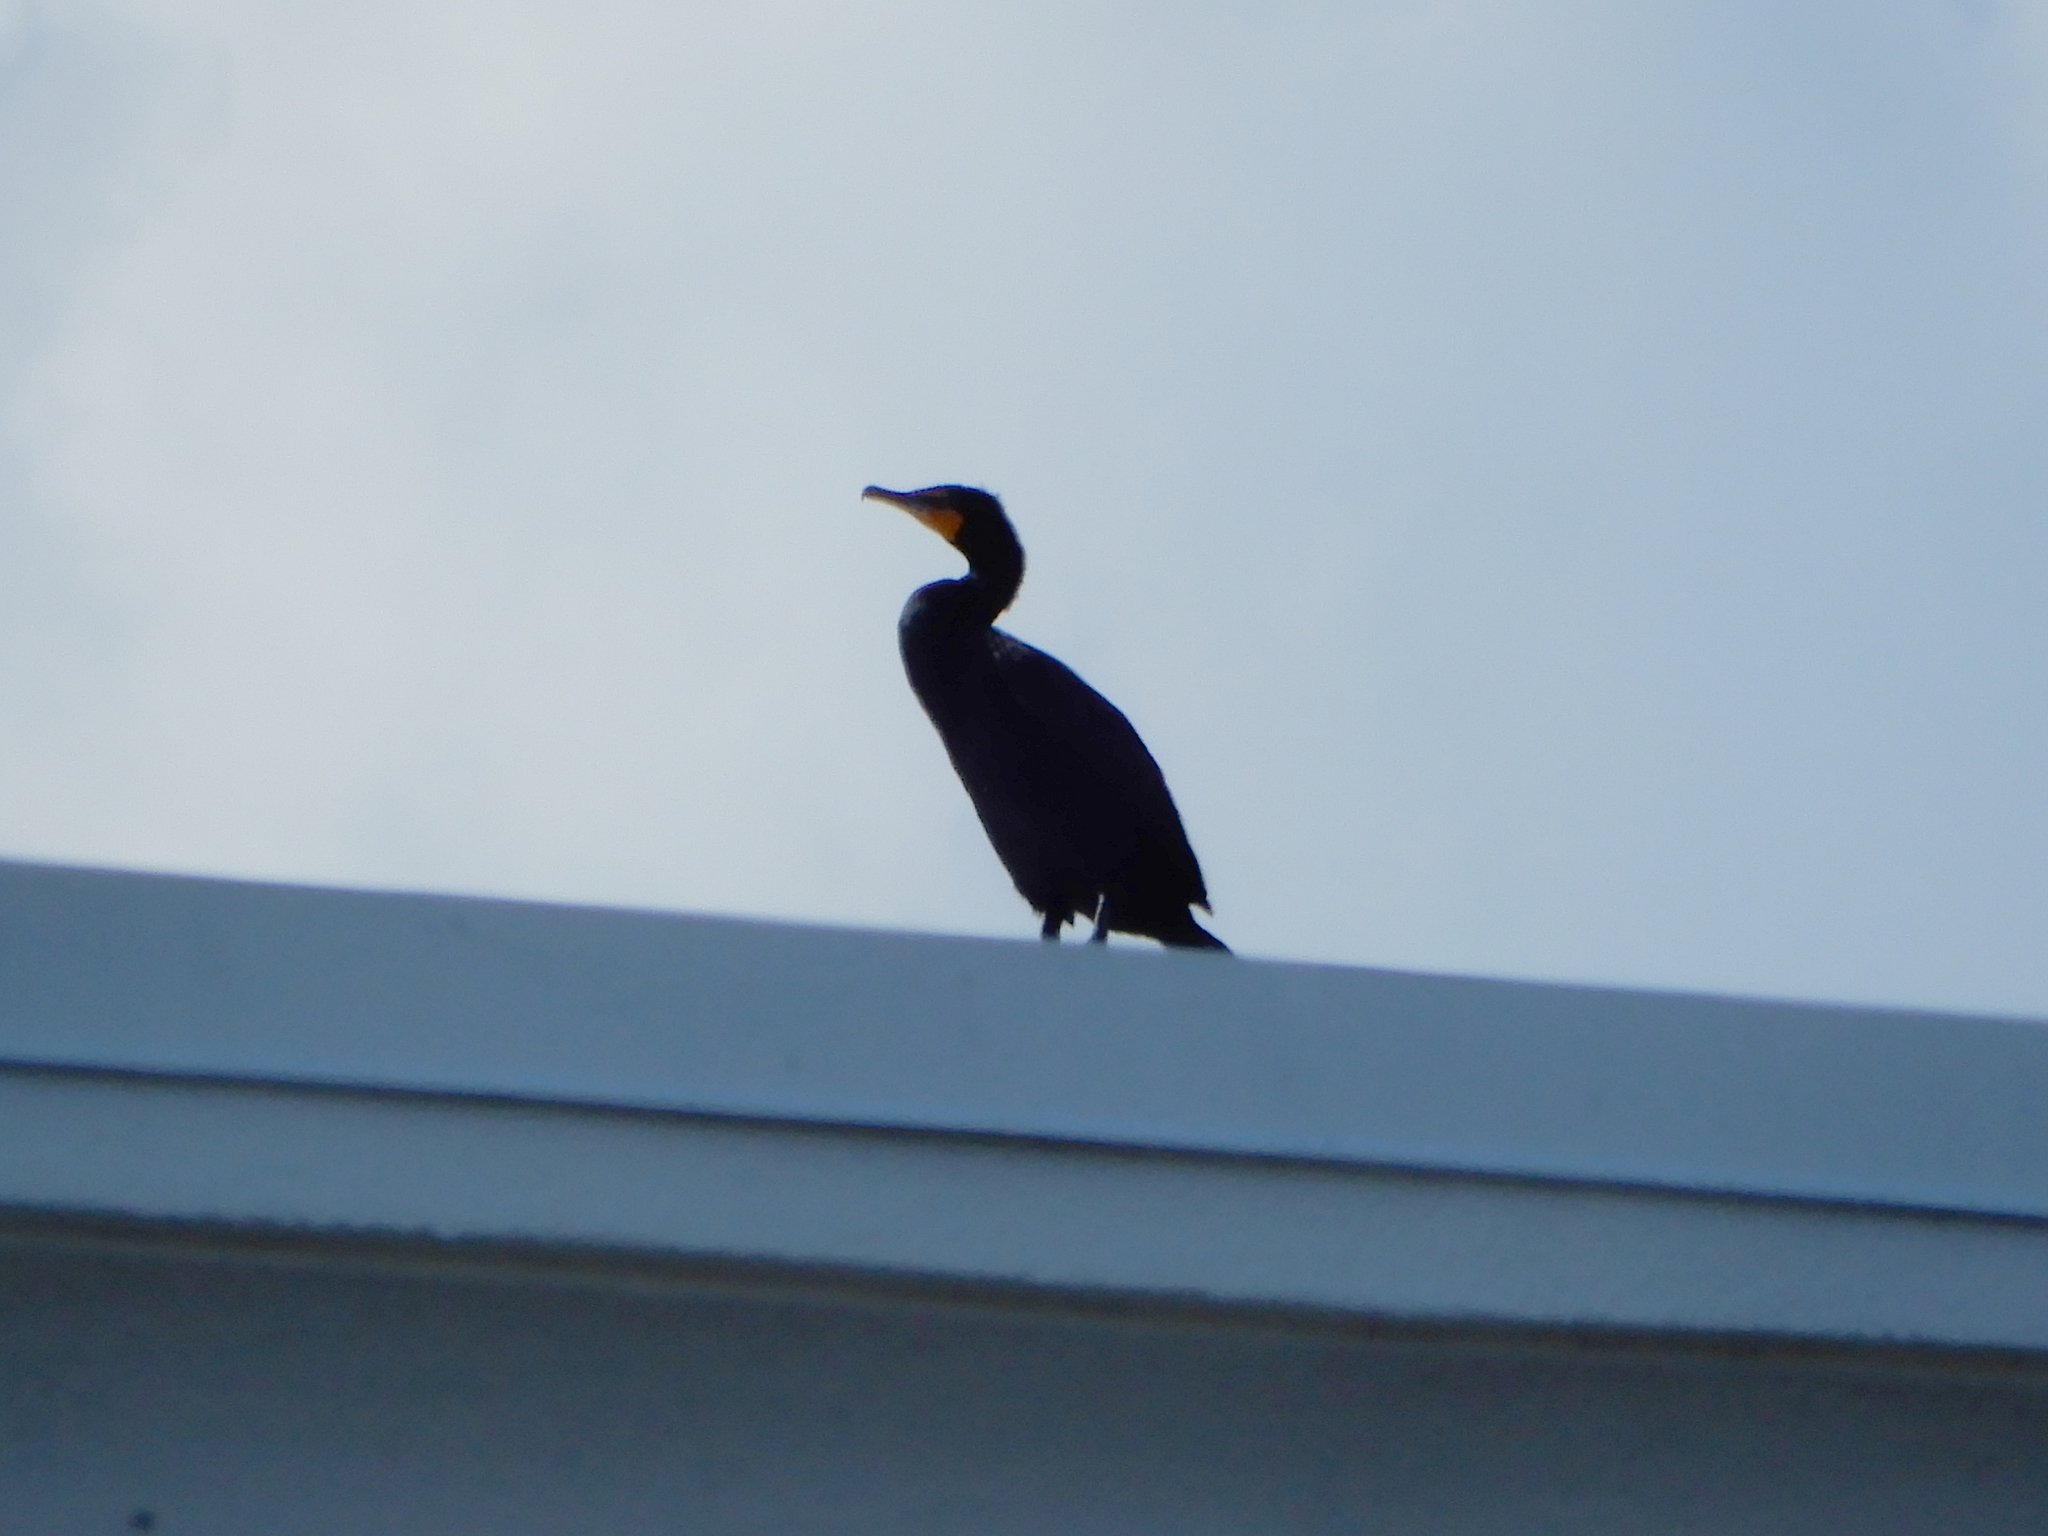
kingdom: Animalia
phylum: Chordata
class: Aves
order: Suliformes
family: Phalacrocoracidae
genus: Phalacrocorax
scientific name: Phalacrocorax auritus
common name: Double-crested cormorant
